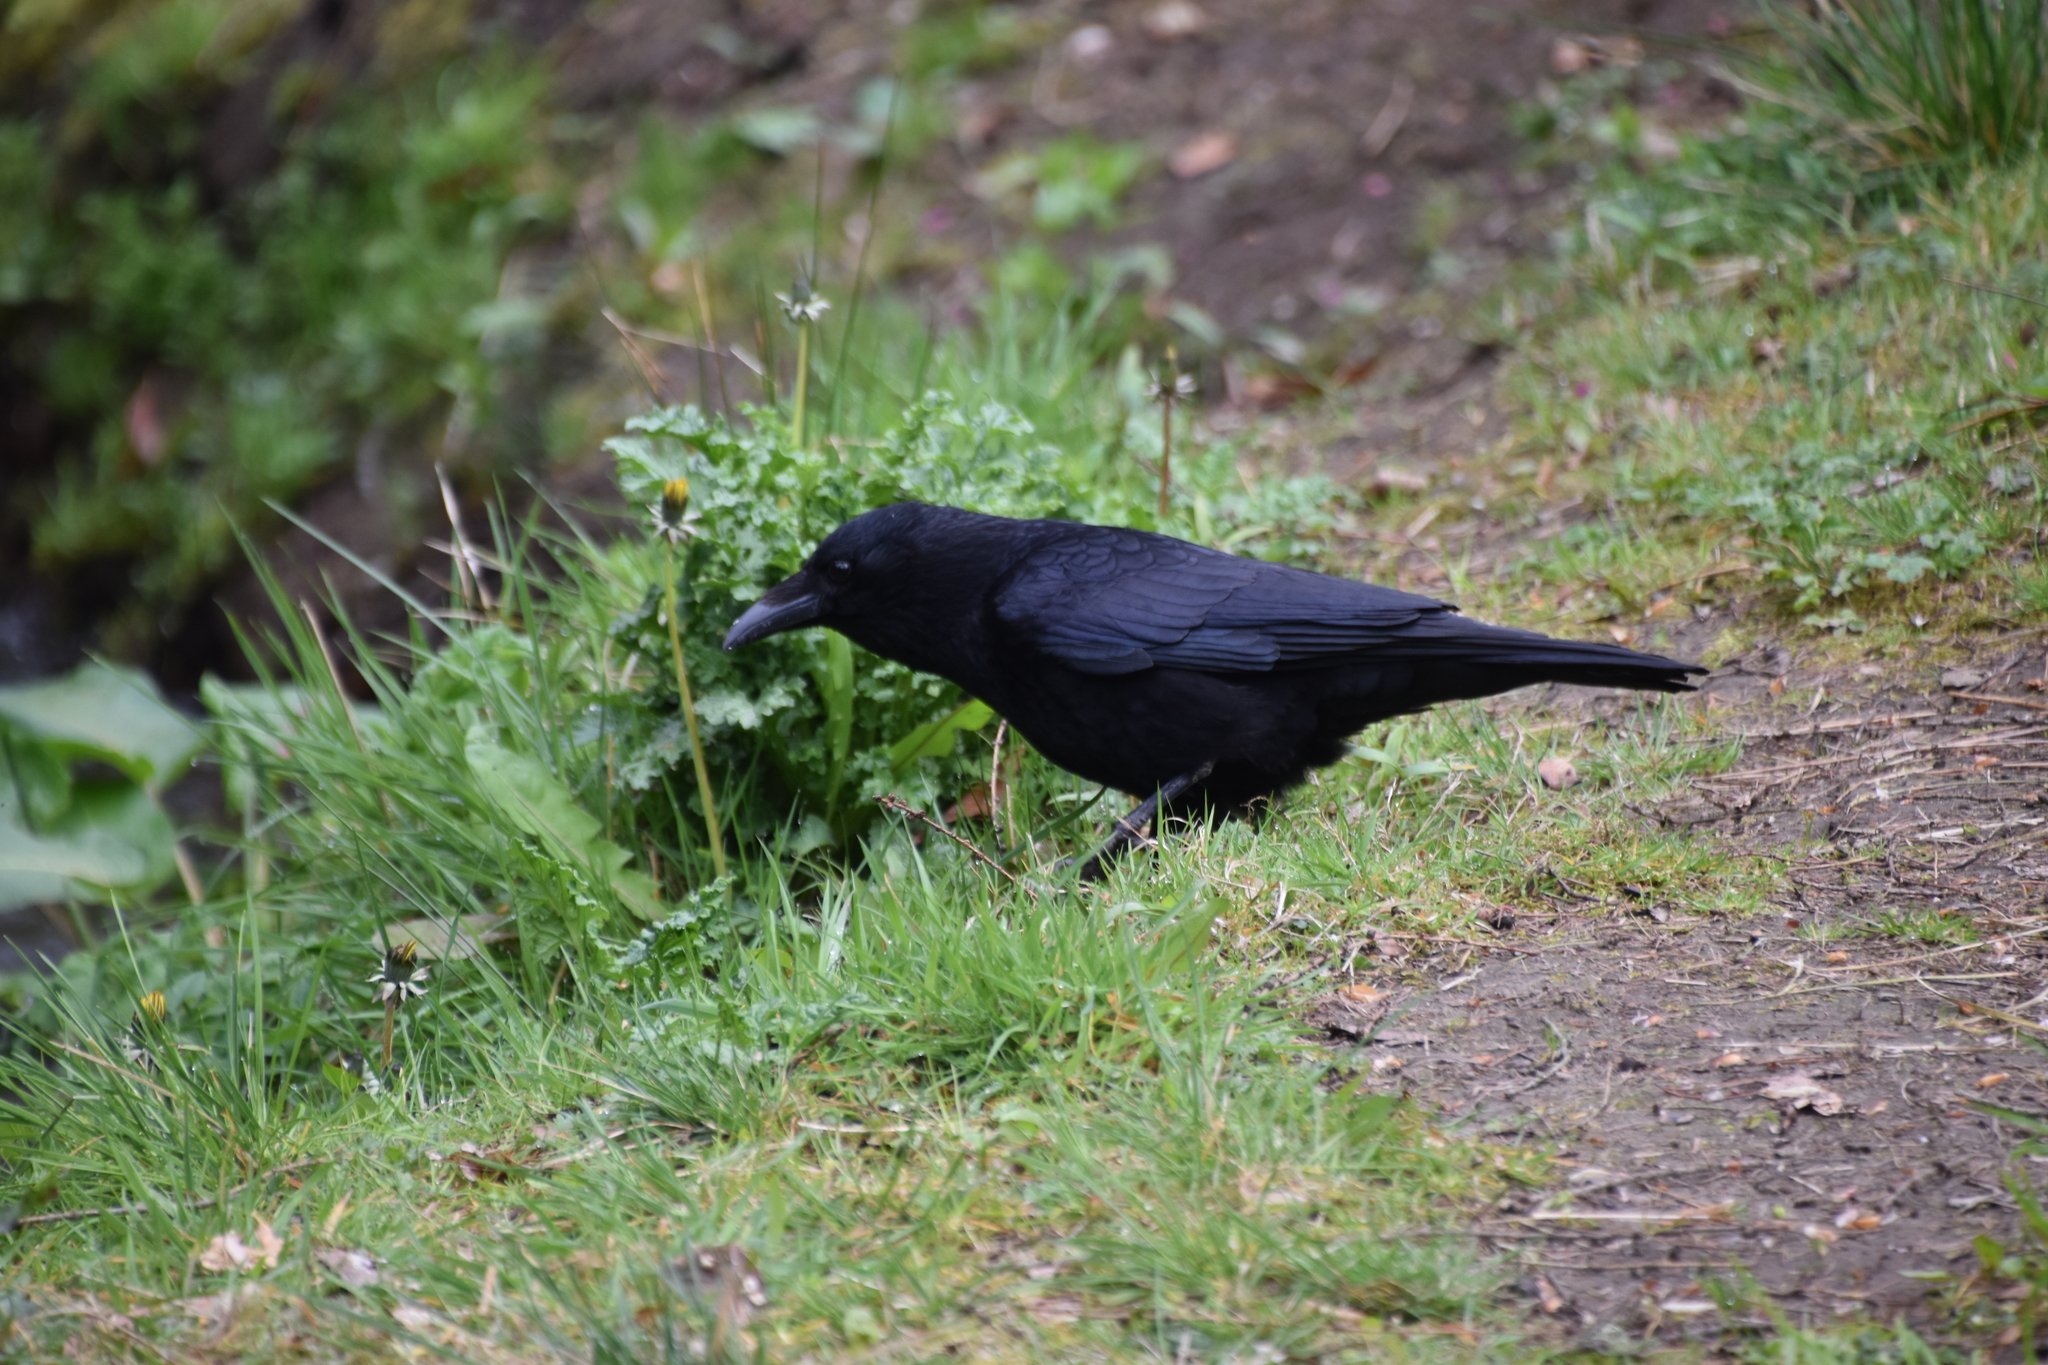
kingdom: Animalia
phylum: Chordata
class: Aves
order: Passeriformes
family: Corvidae
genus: Corvus
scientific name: Corvus corone
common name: Carrion crow
